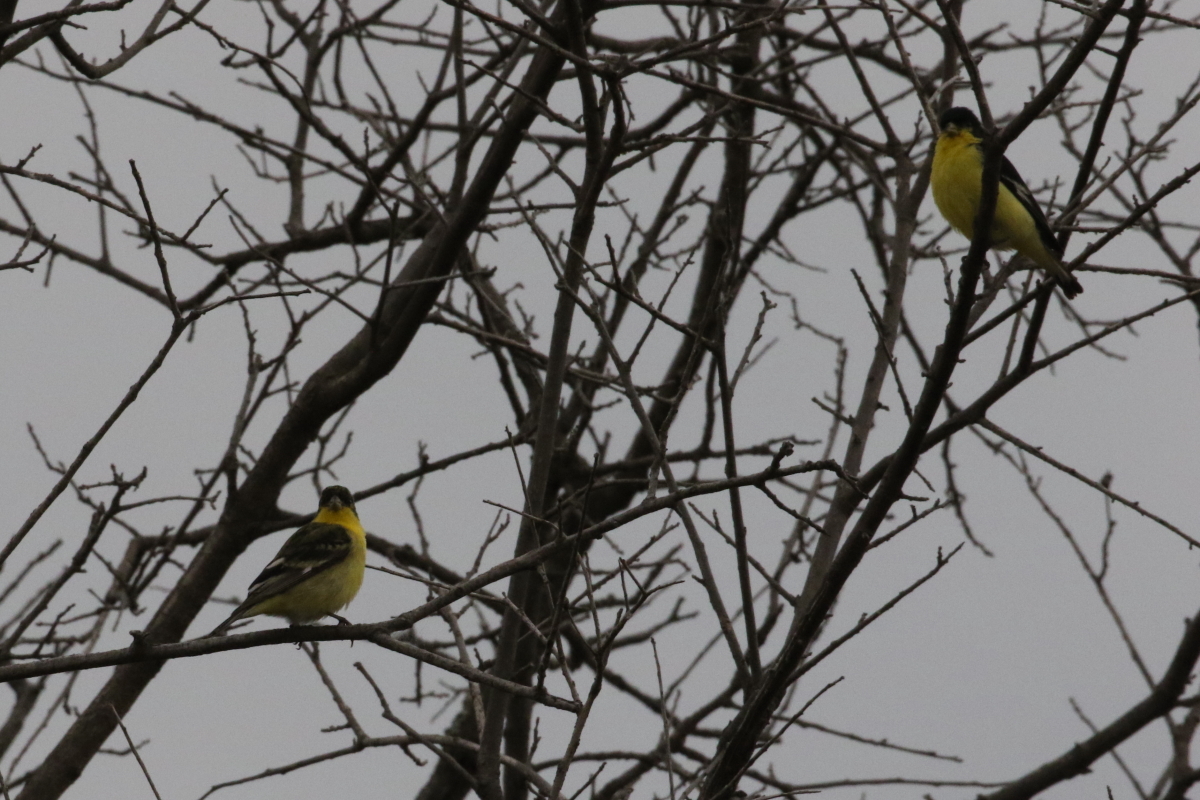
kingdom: Animalia
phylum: Chordata
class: Aves
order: Passeriformes
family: Fringillidae
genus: Spinus
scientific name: Spinus psaltria
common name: Lesser goldfinch
